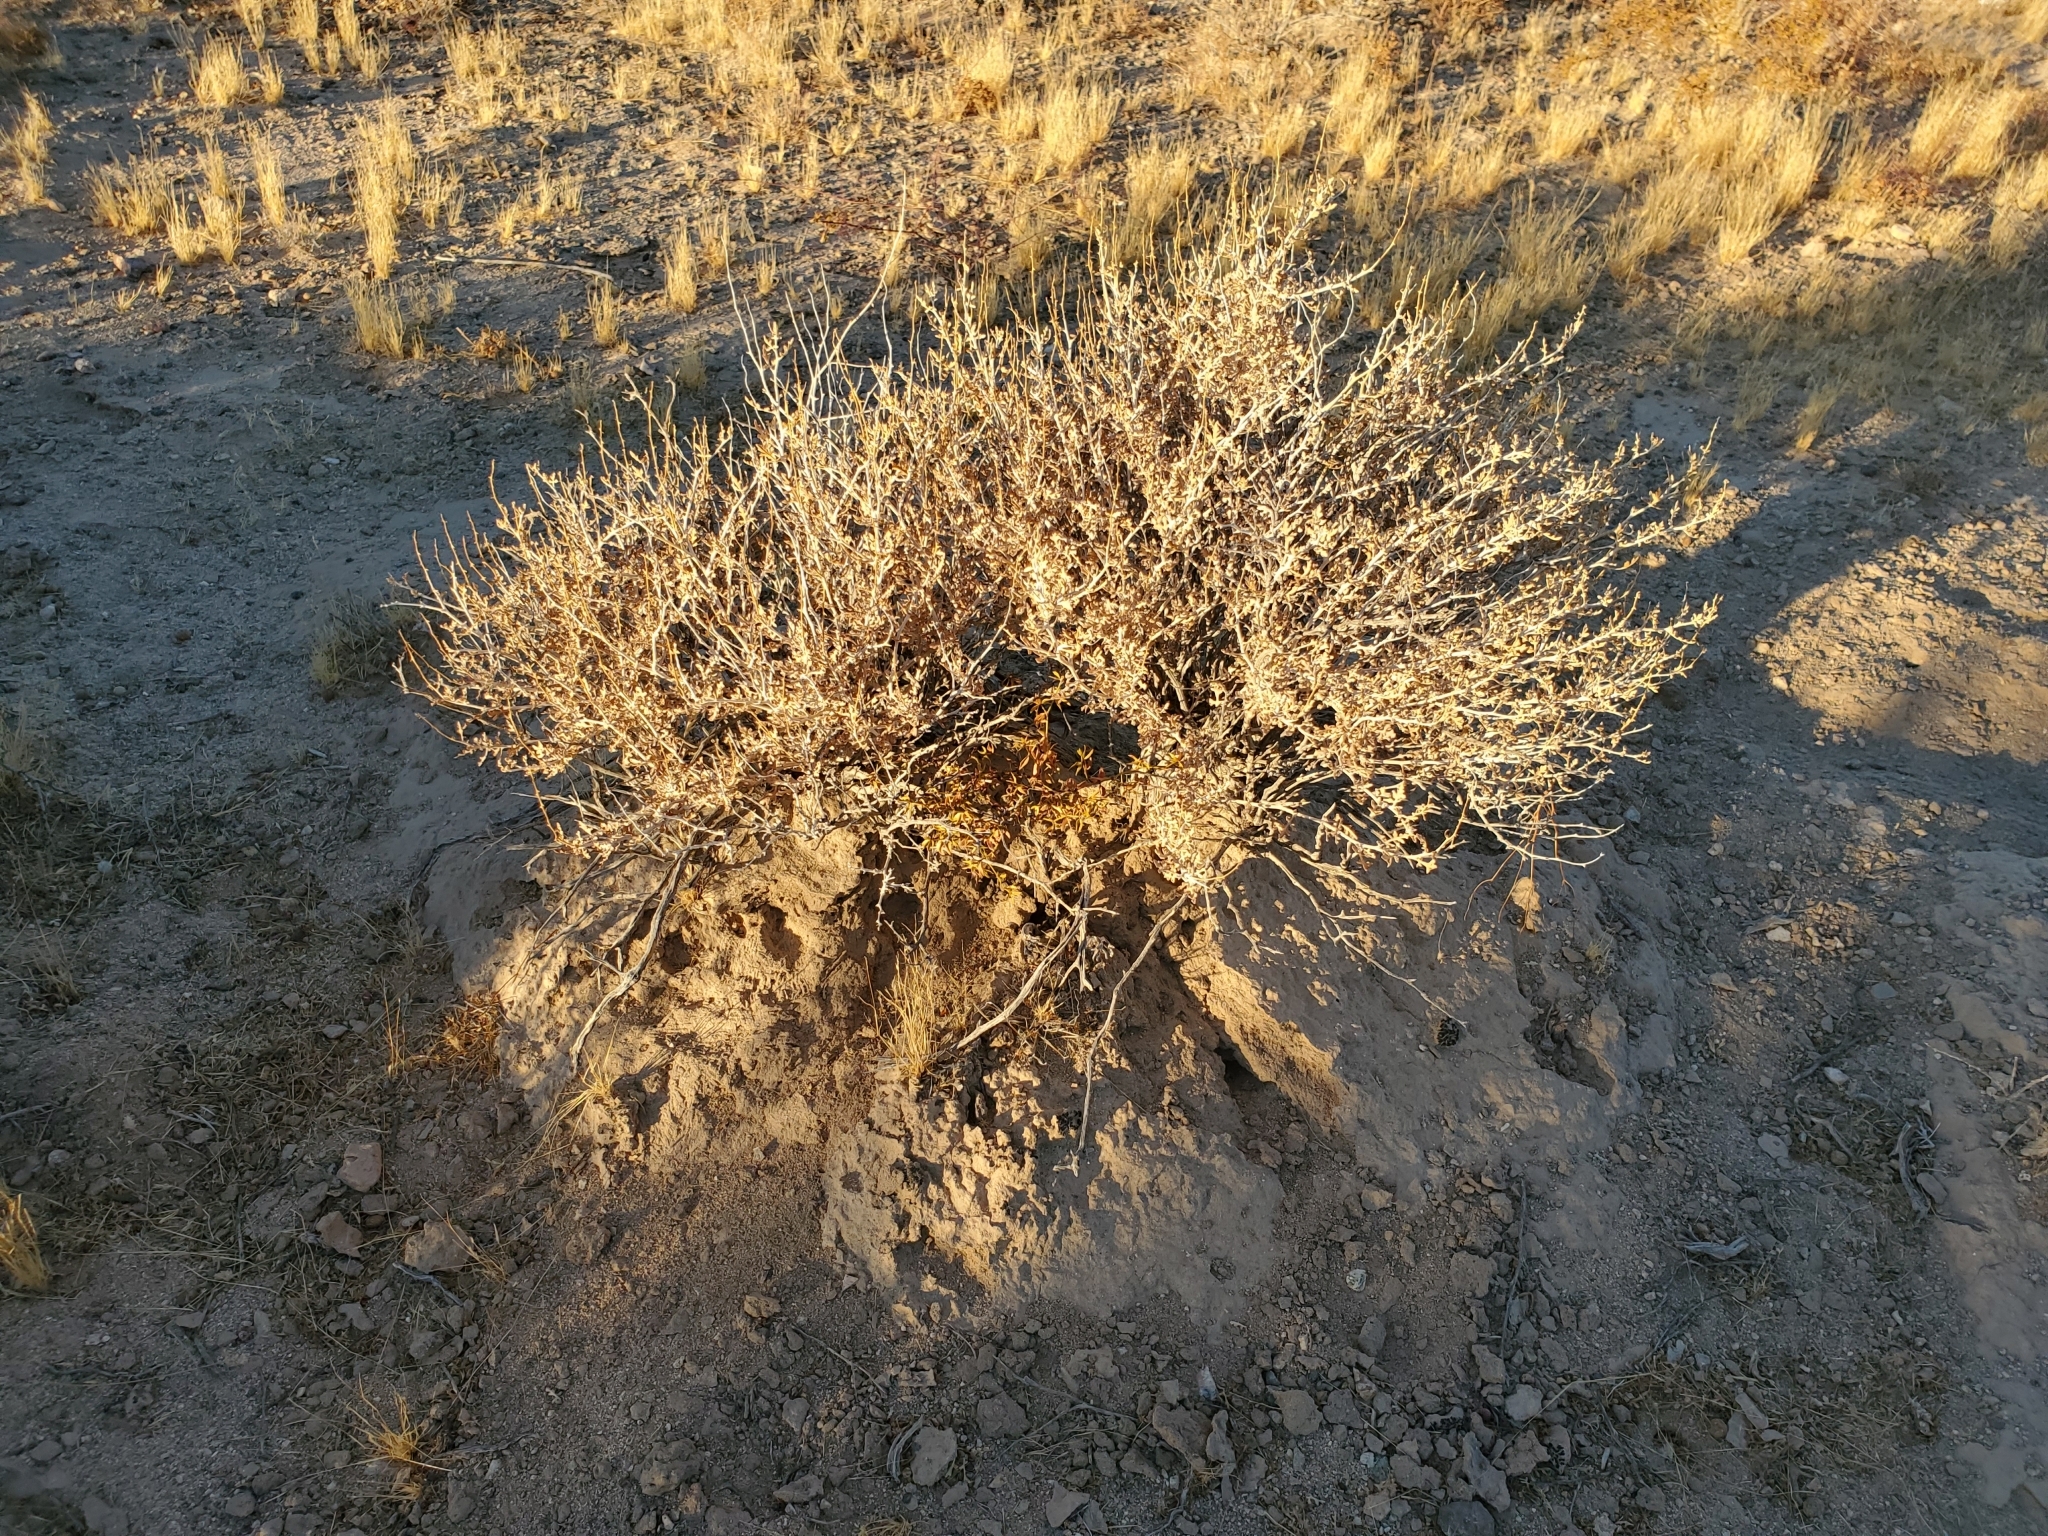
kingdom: Plantae
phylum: Tracheophyta
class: Magnoliopsida
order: Asterales
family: Asteraceae
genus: Ambrosia
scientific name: Ambrosia dumosa
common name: Bur-sage
